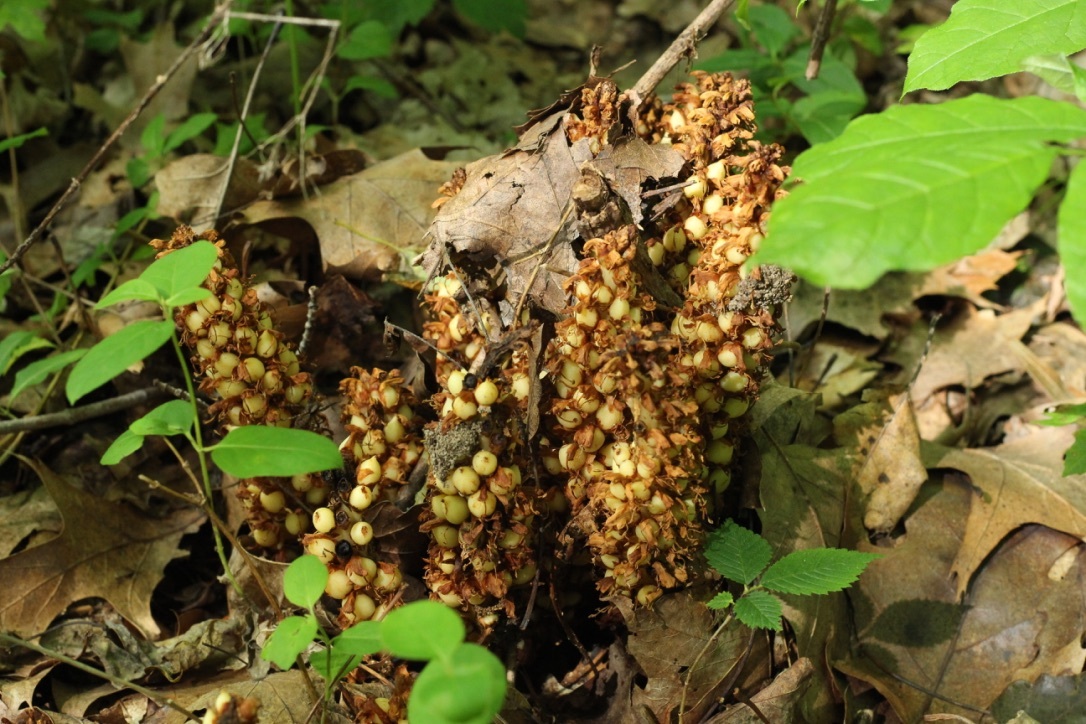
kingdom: Plantae
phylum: Tracheophyta
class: Magnoliopsida
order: Lamiales
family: Orobanchaceae
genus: Conopholis
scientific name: Conopholis americana
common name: American cancer-root
